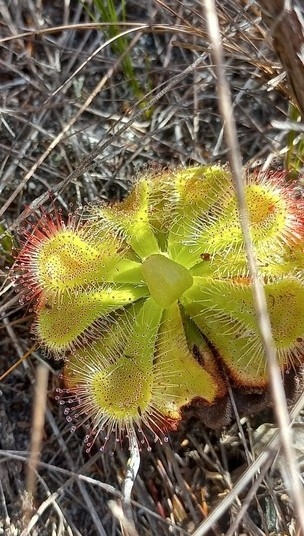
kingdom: Plantae
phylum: Tracheophyta
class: Magnoliopsida
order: Caryophyllales
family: Droseraceae
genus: Drosera
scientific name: Drosera xerophila
